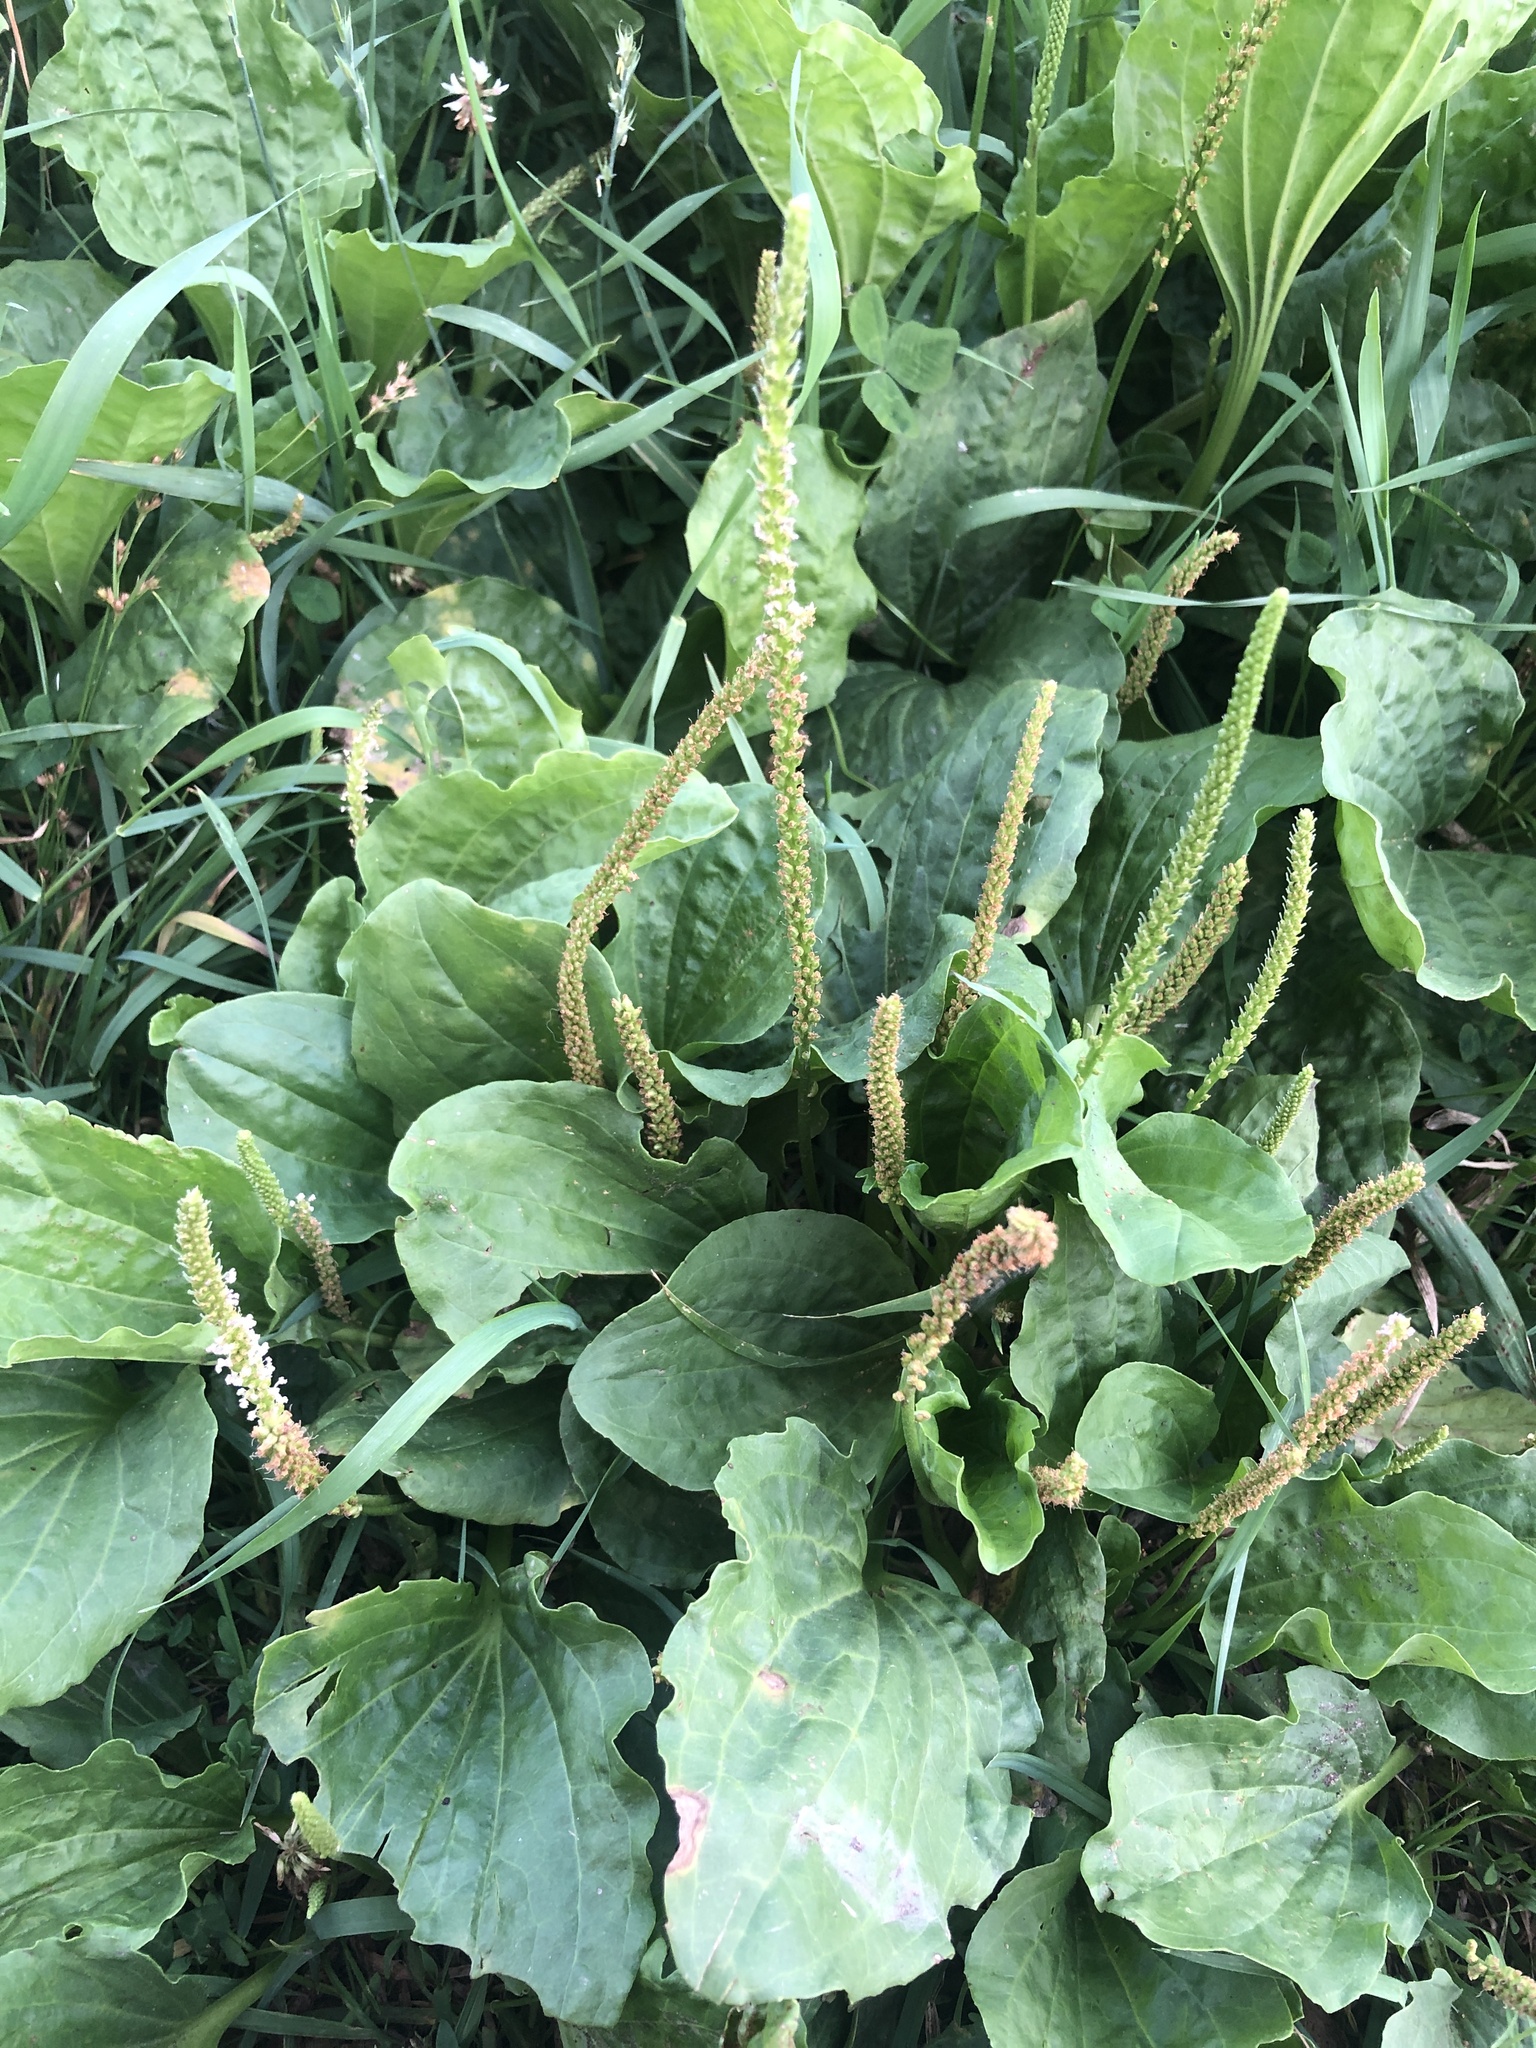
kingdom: Plantae
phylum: Tracheophyta
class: Magnoliopsida
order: Lamiales
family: Plantaginaceae
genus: Plantago
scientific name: Plantago major
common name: Common plantain
